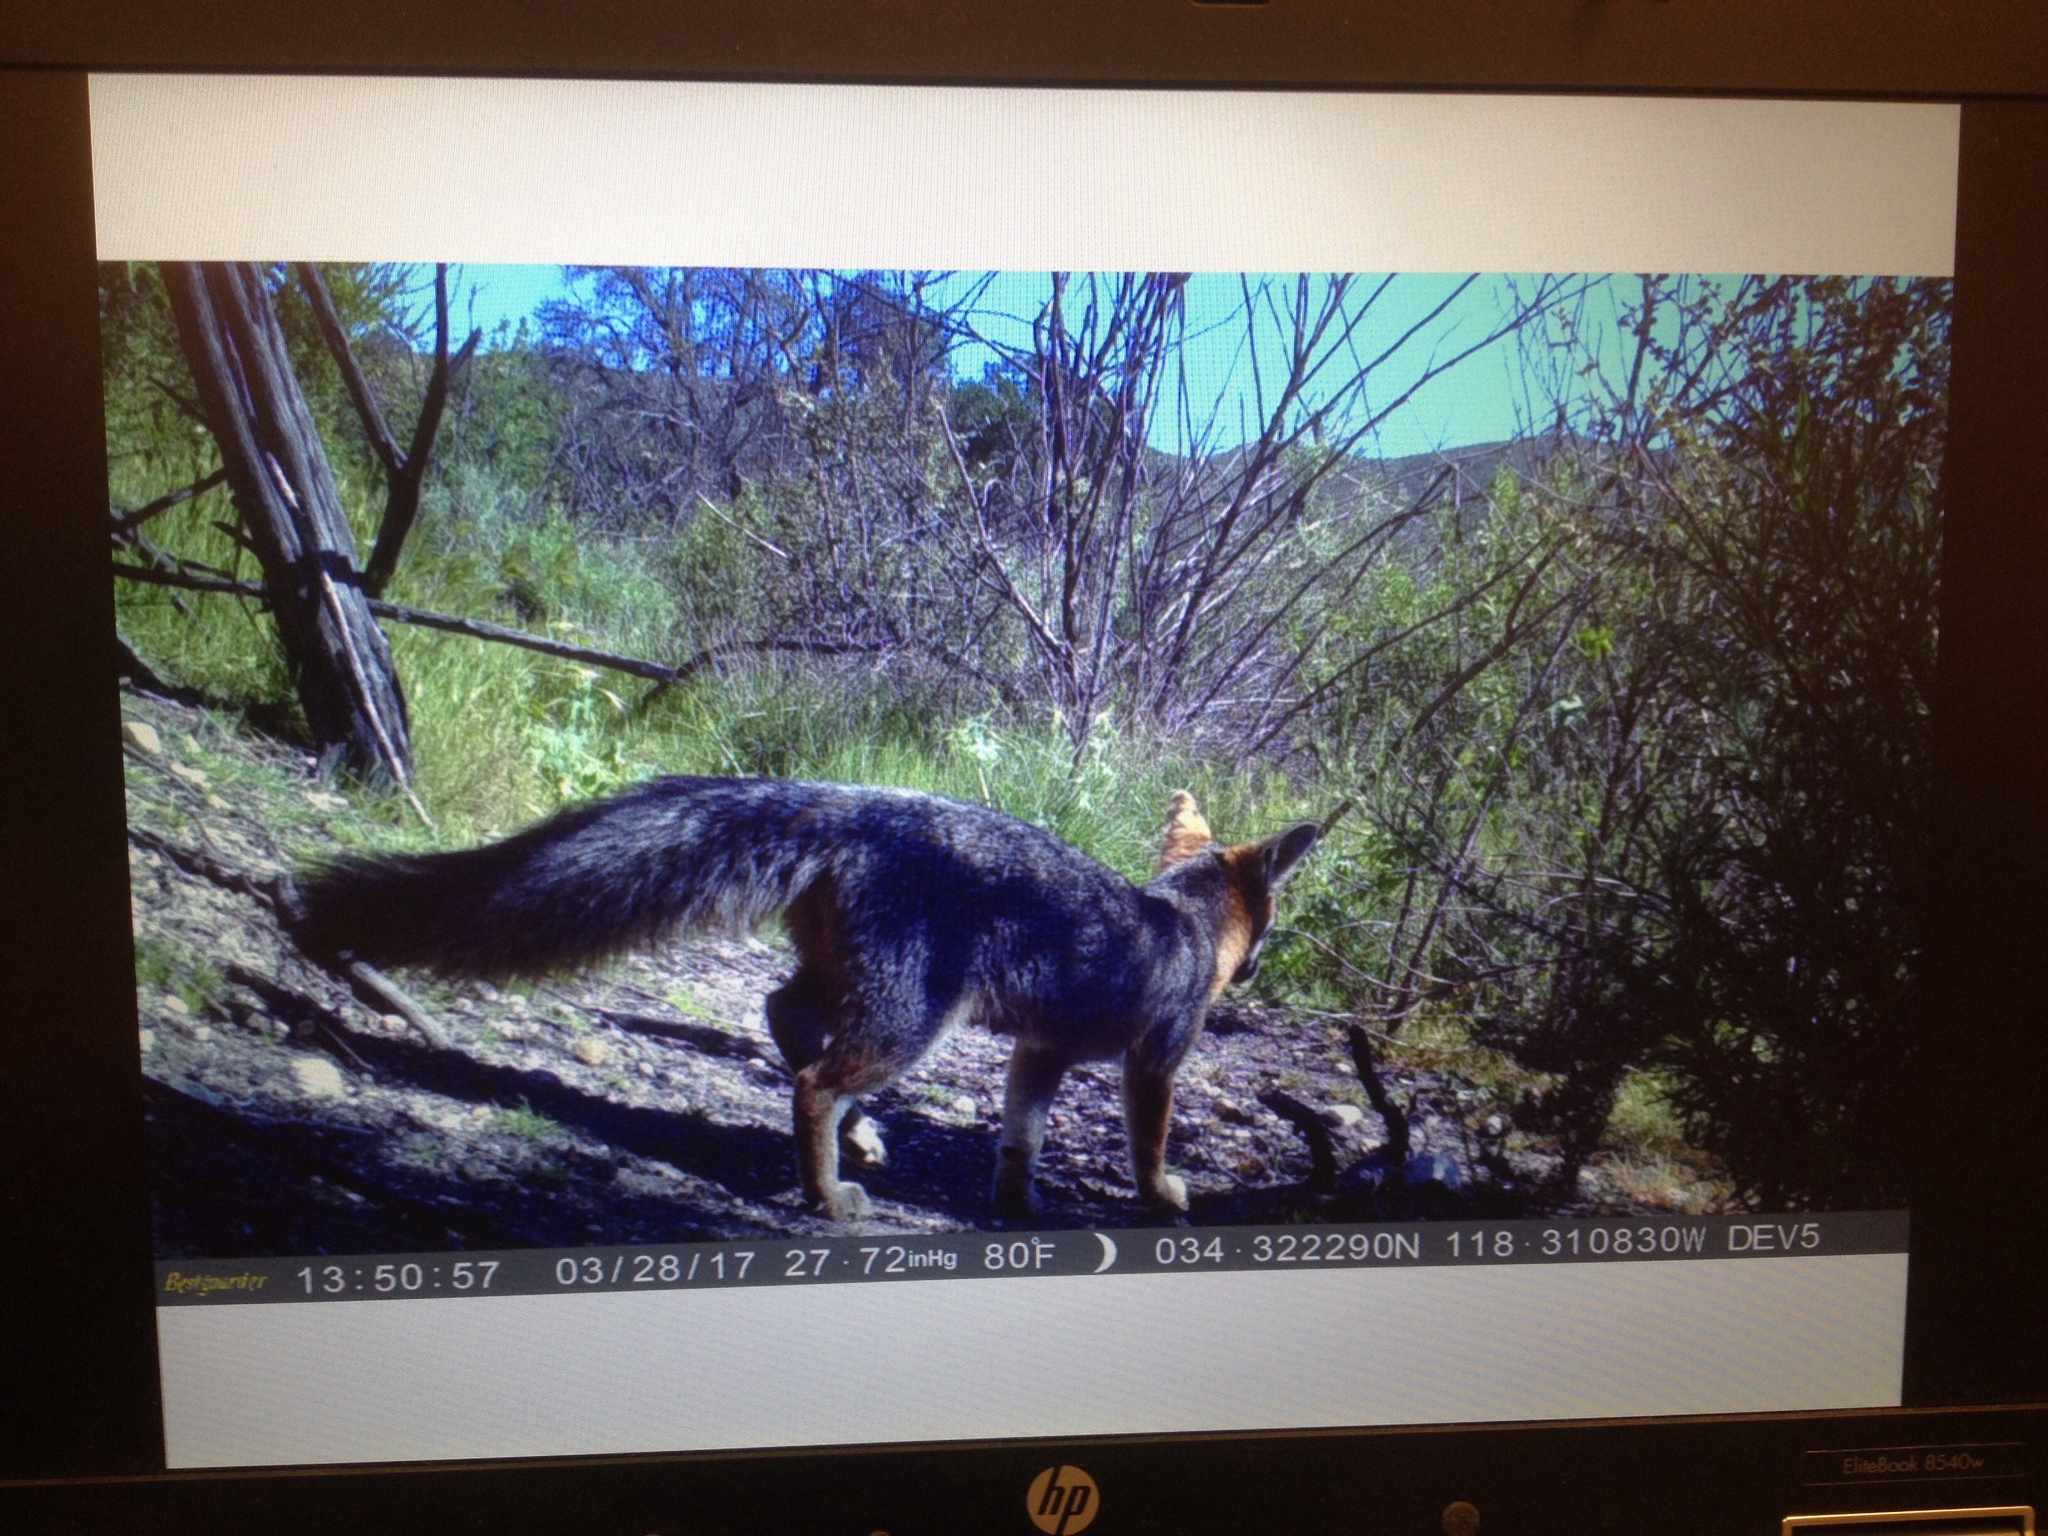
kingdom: Animalia
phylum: Chordata
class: Mammalia
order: Carnivora
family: Canidae
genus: Urocyon
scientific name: Urocyon cinereoargenteus
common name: Gray fox
